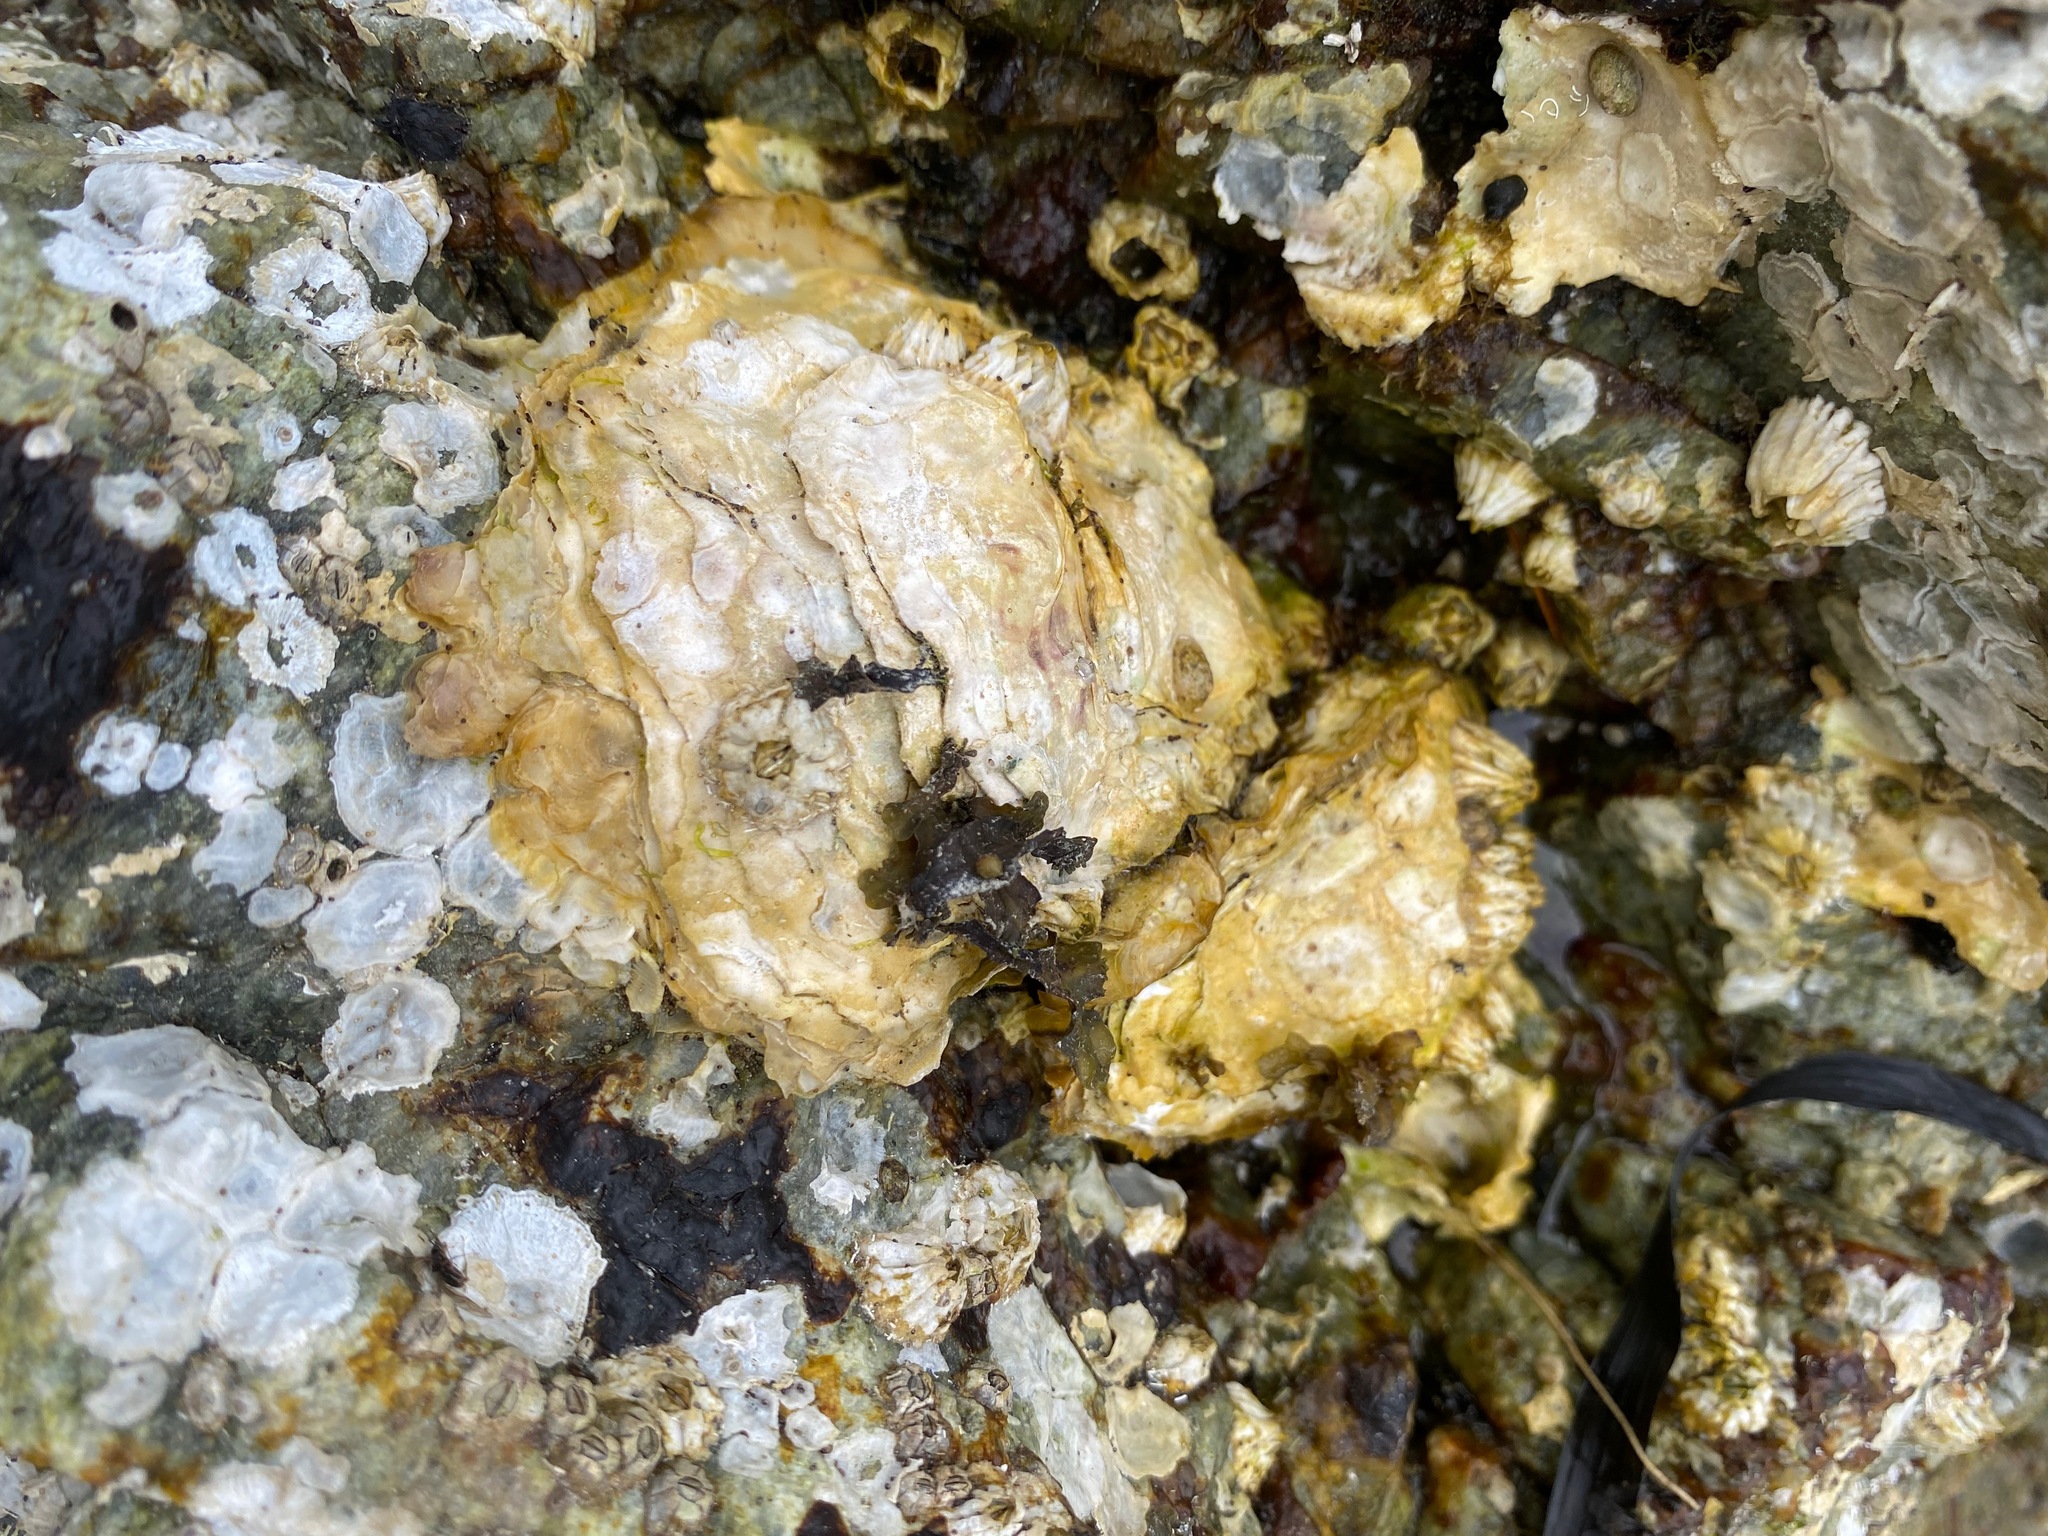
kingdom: Animalia
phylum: Mollusca
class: Bivalvia
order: Ostreida
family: Ostreidae
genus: Magallana
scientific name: Magallana gigas
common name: Pacific oyster
